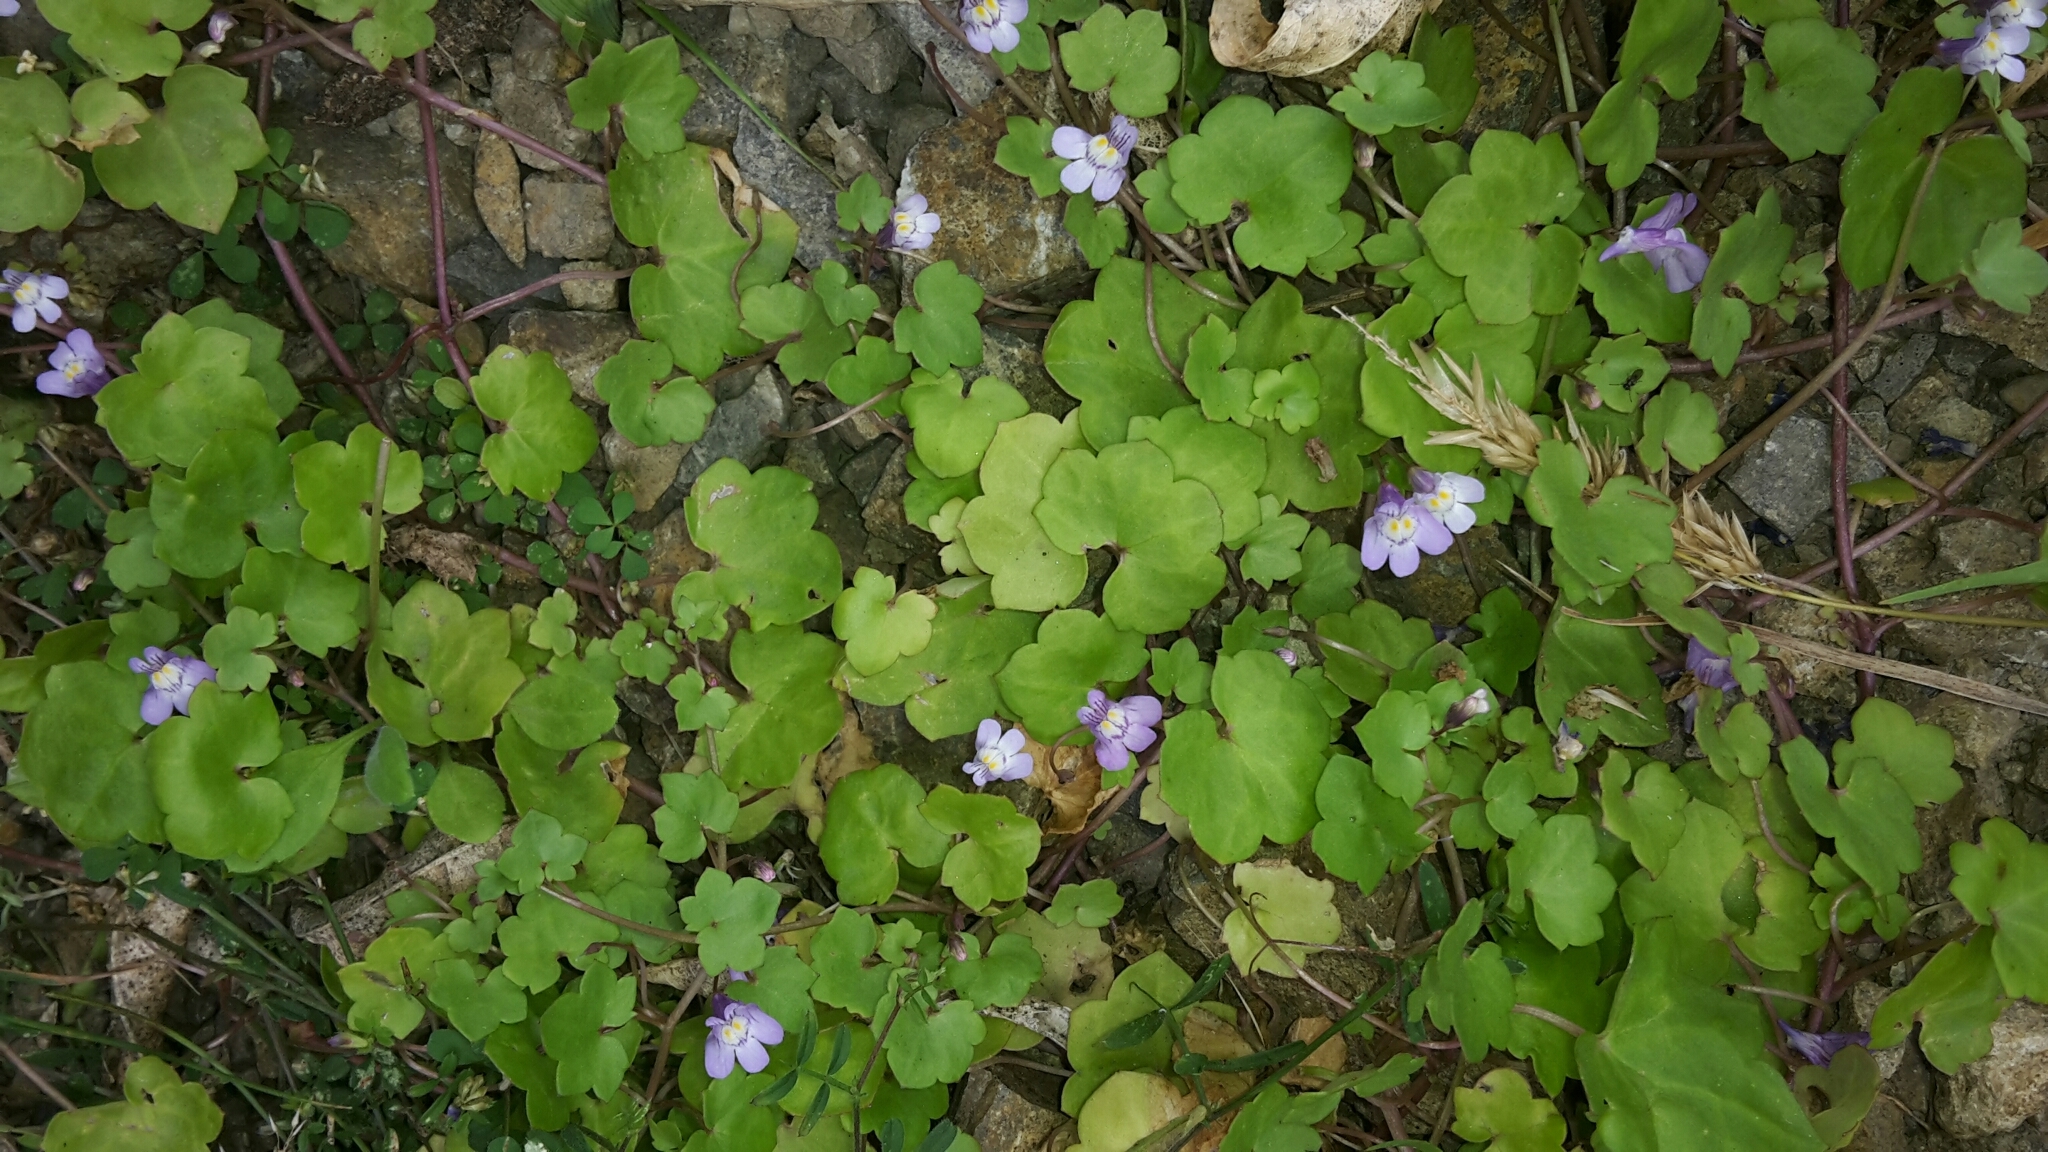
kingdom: Plantae
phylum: Tracheophyta
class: Magnoliopsida
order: Lamiales
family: Plantaginaceae
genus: Cymbalaria
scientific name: Cymbalaria muralis
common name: Ivy-leaved toadflax
